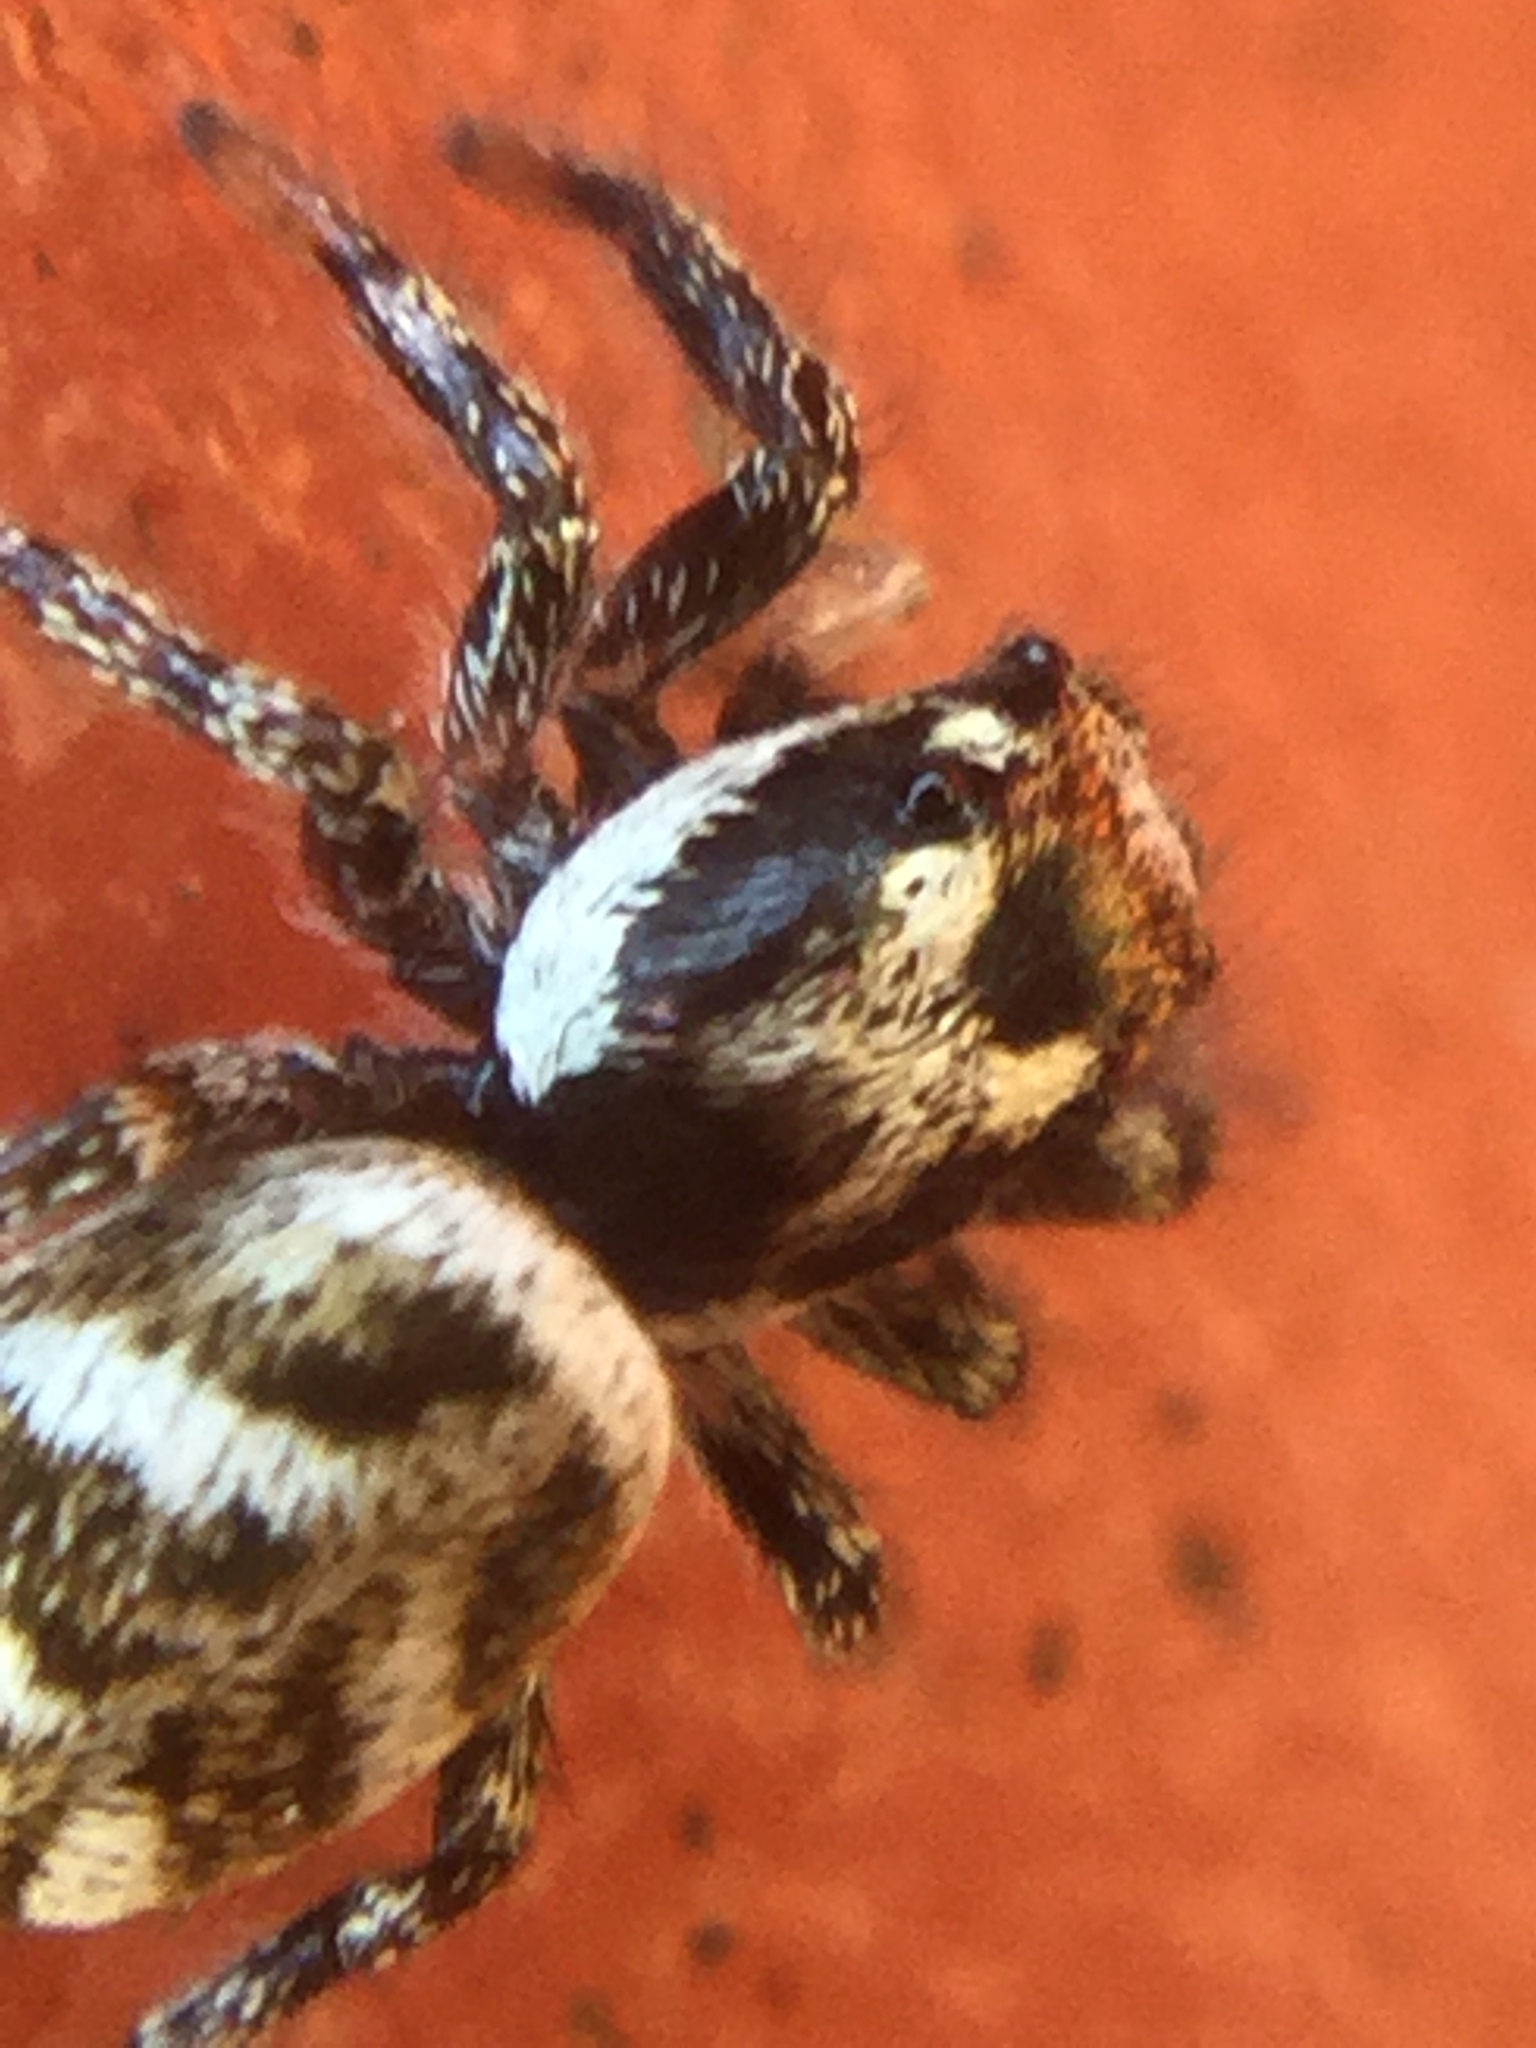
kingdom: Animalia
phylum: Arthropoda
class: Arachnida
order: Araneae
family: Salticidae
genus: Salticus
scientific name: Salticus scenicus
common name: Zebra jumper
